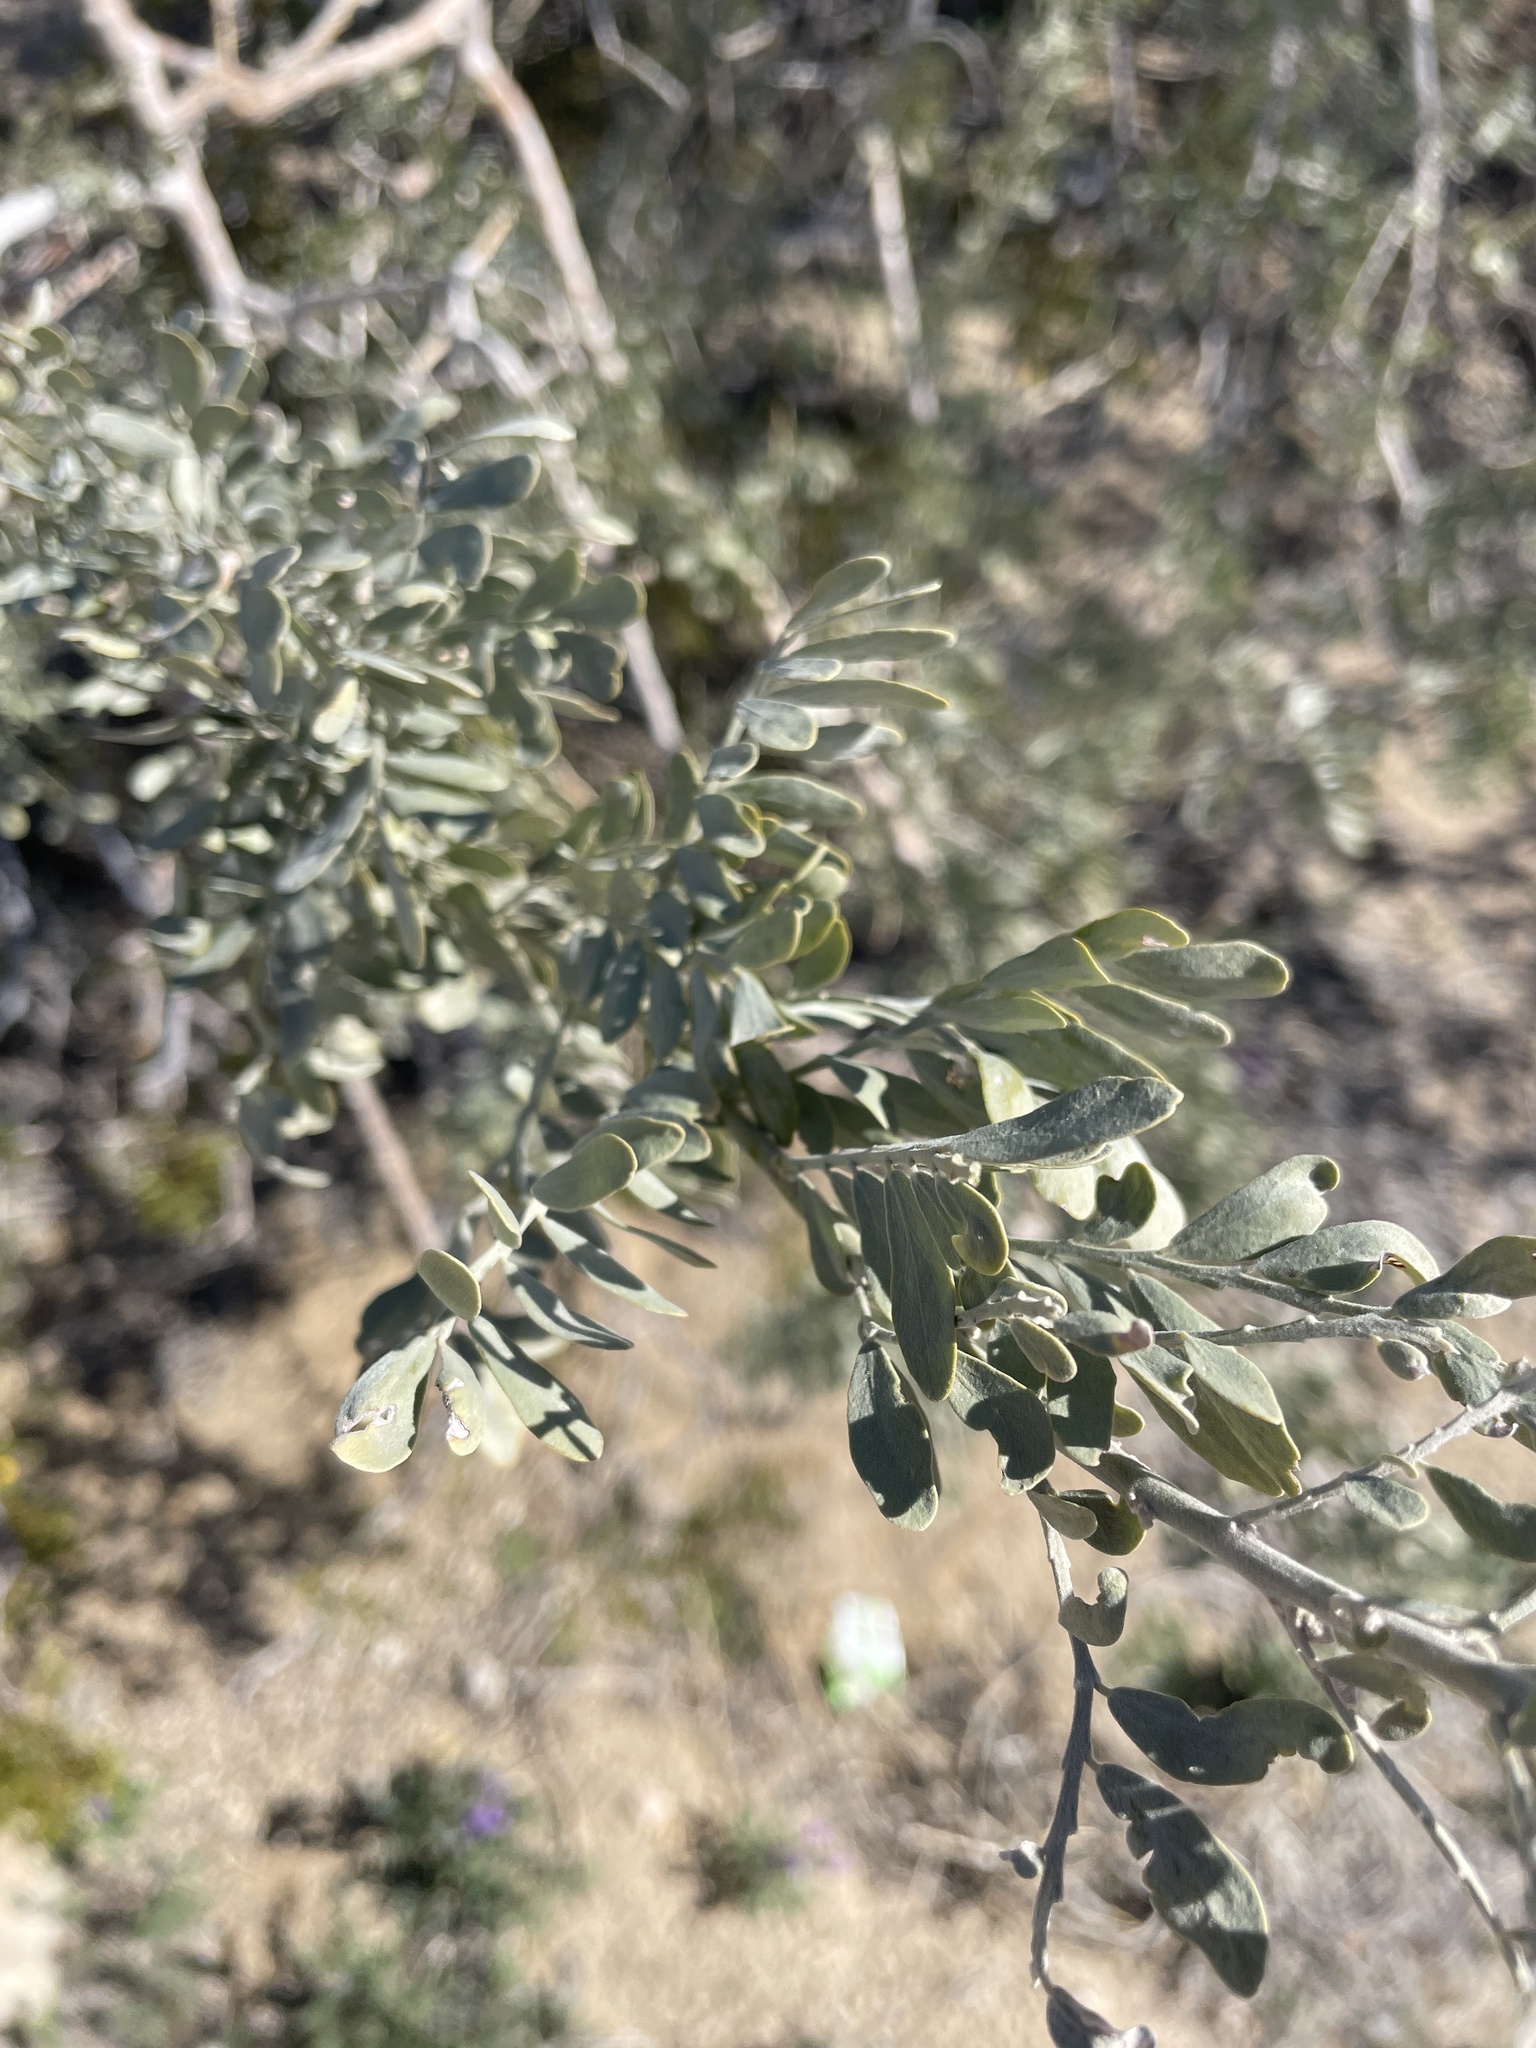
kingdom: Plantae
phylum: Tracheophyta
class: Magnoliopsida
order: Fabales
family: Fabaceae
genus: Olneya
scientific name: Olneya tesota
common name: Desert ironwood
